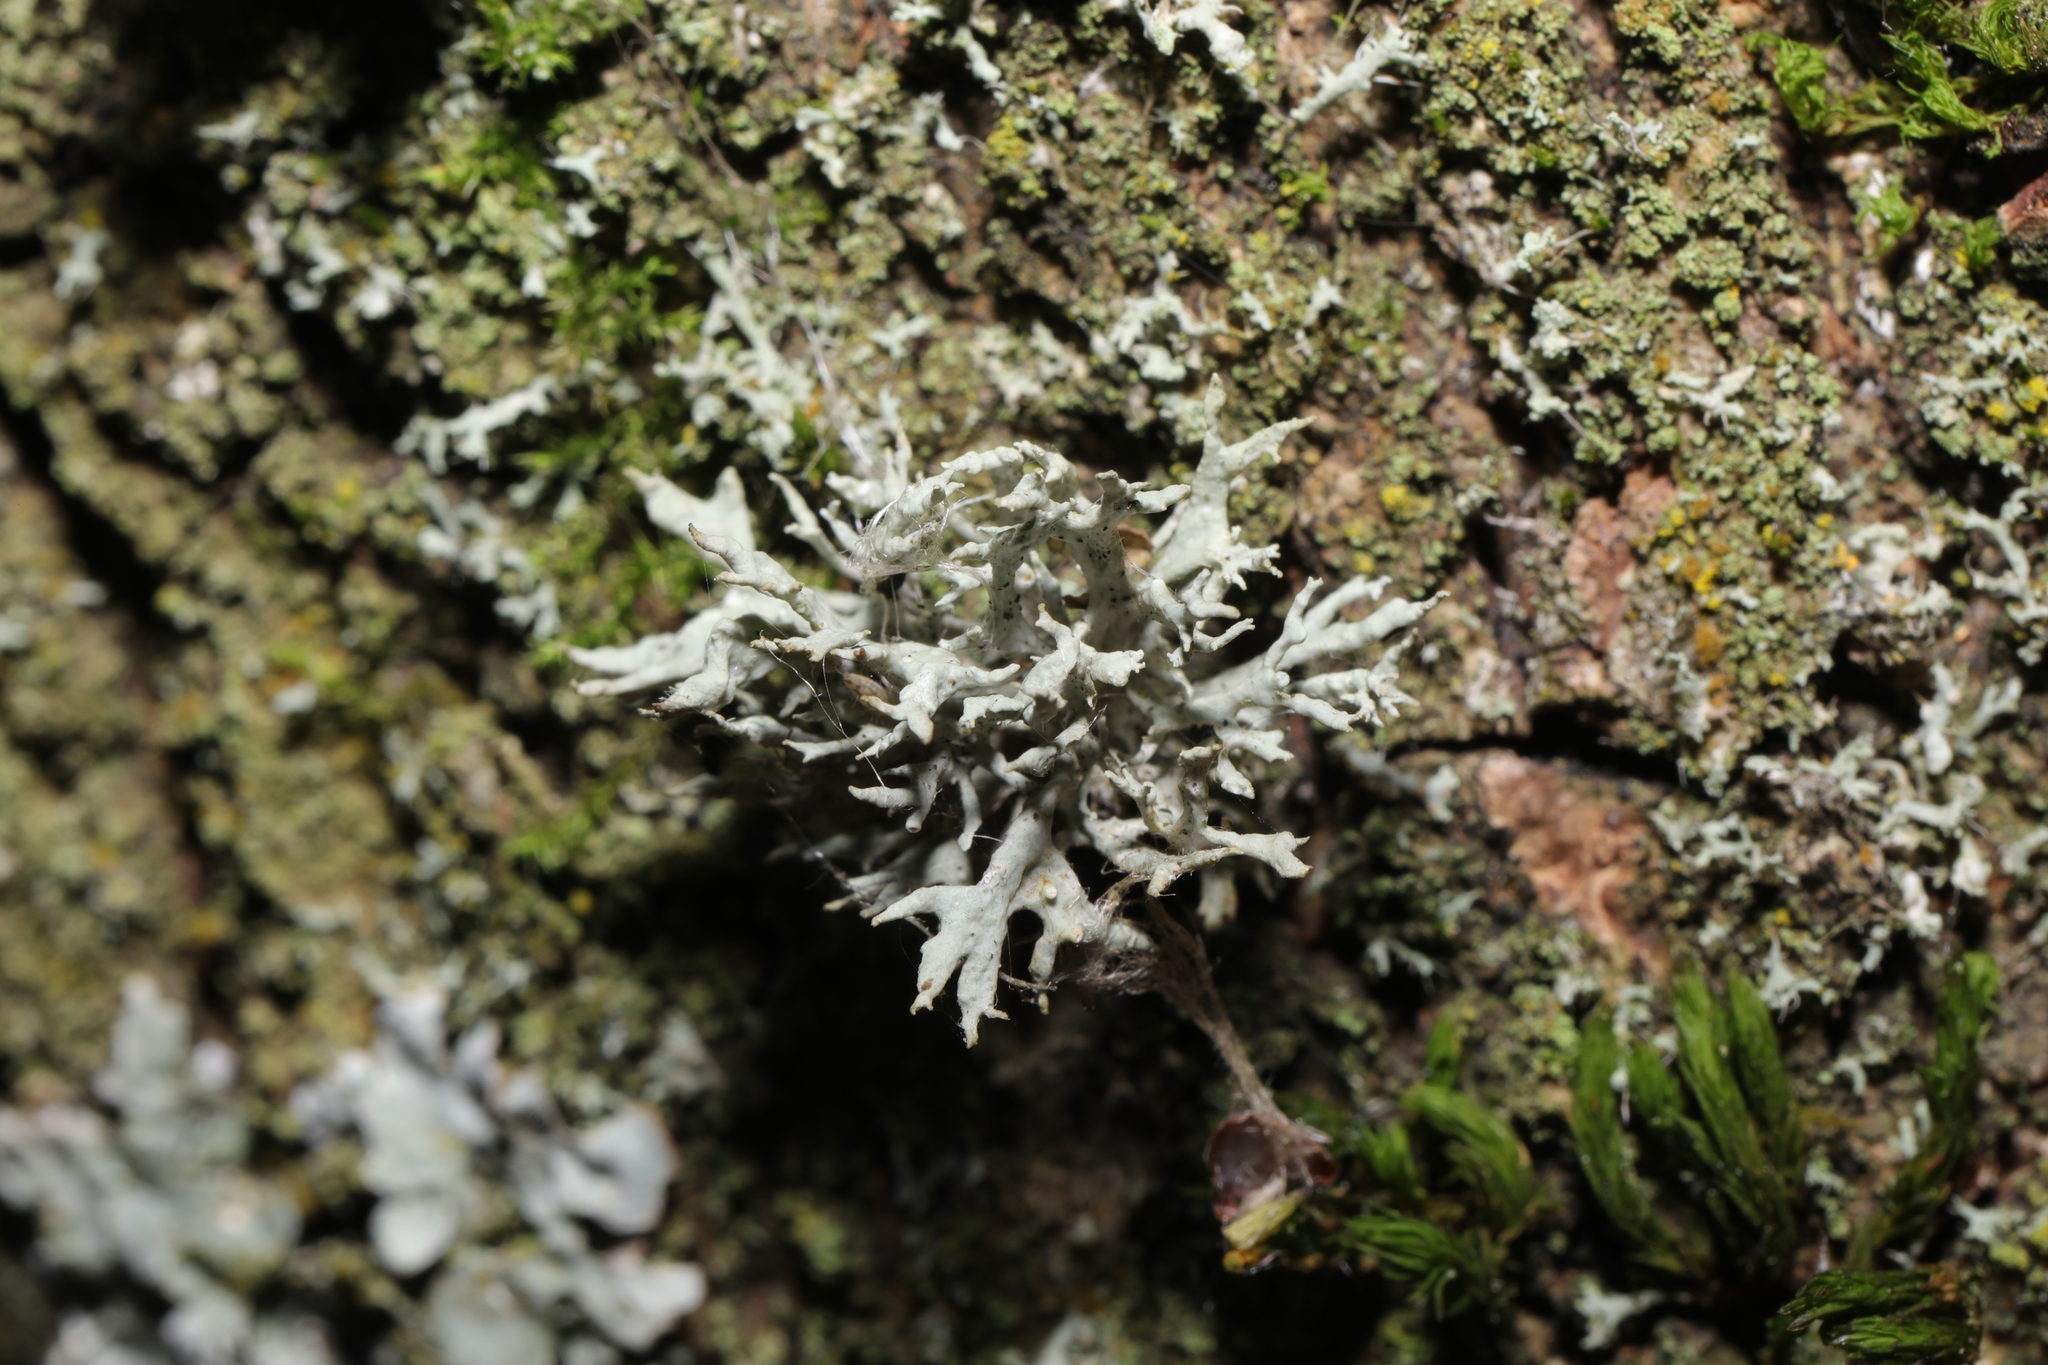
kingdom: Fungi
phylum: Ascomycota
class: Lecanoromycetes
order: Lecanorales
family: Parmeliaceae
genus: Evernia
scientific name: Evernia prunastri
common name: Oak moss
